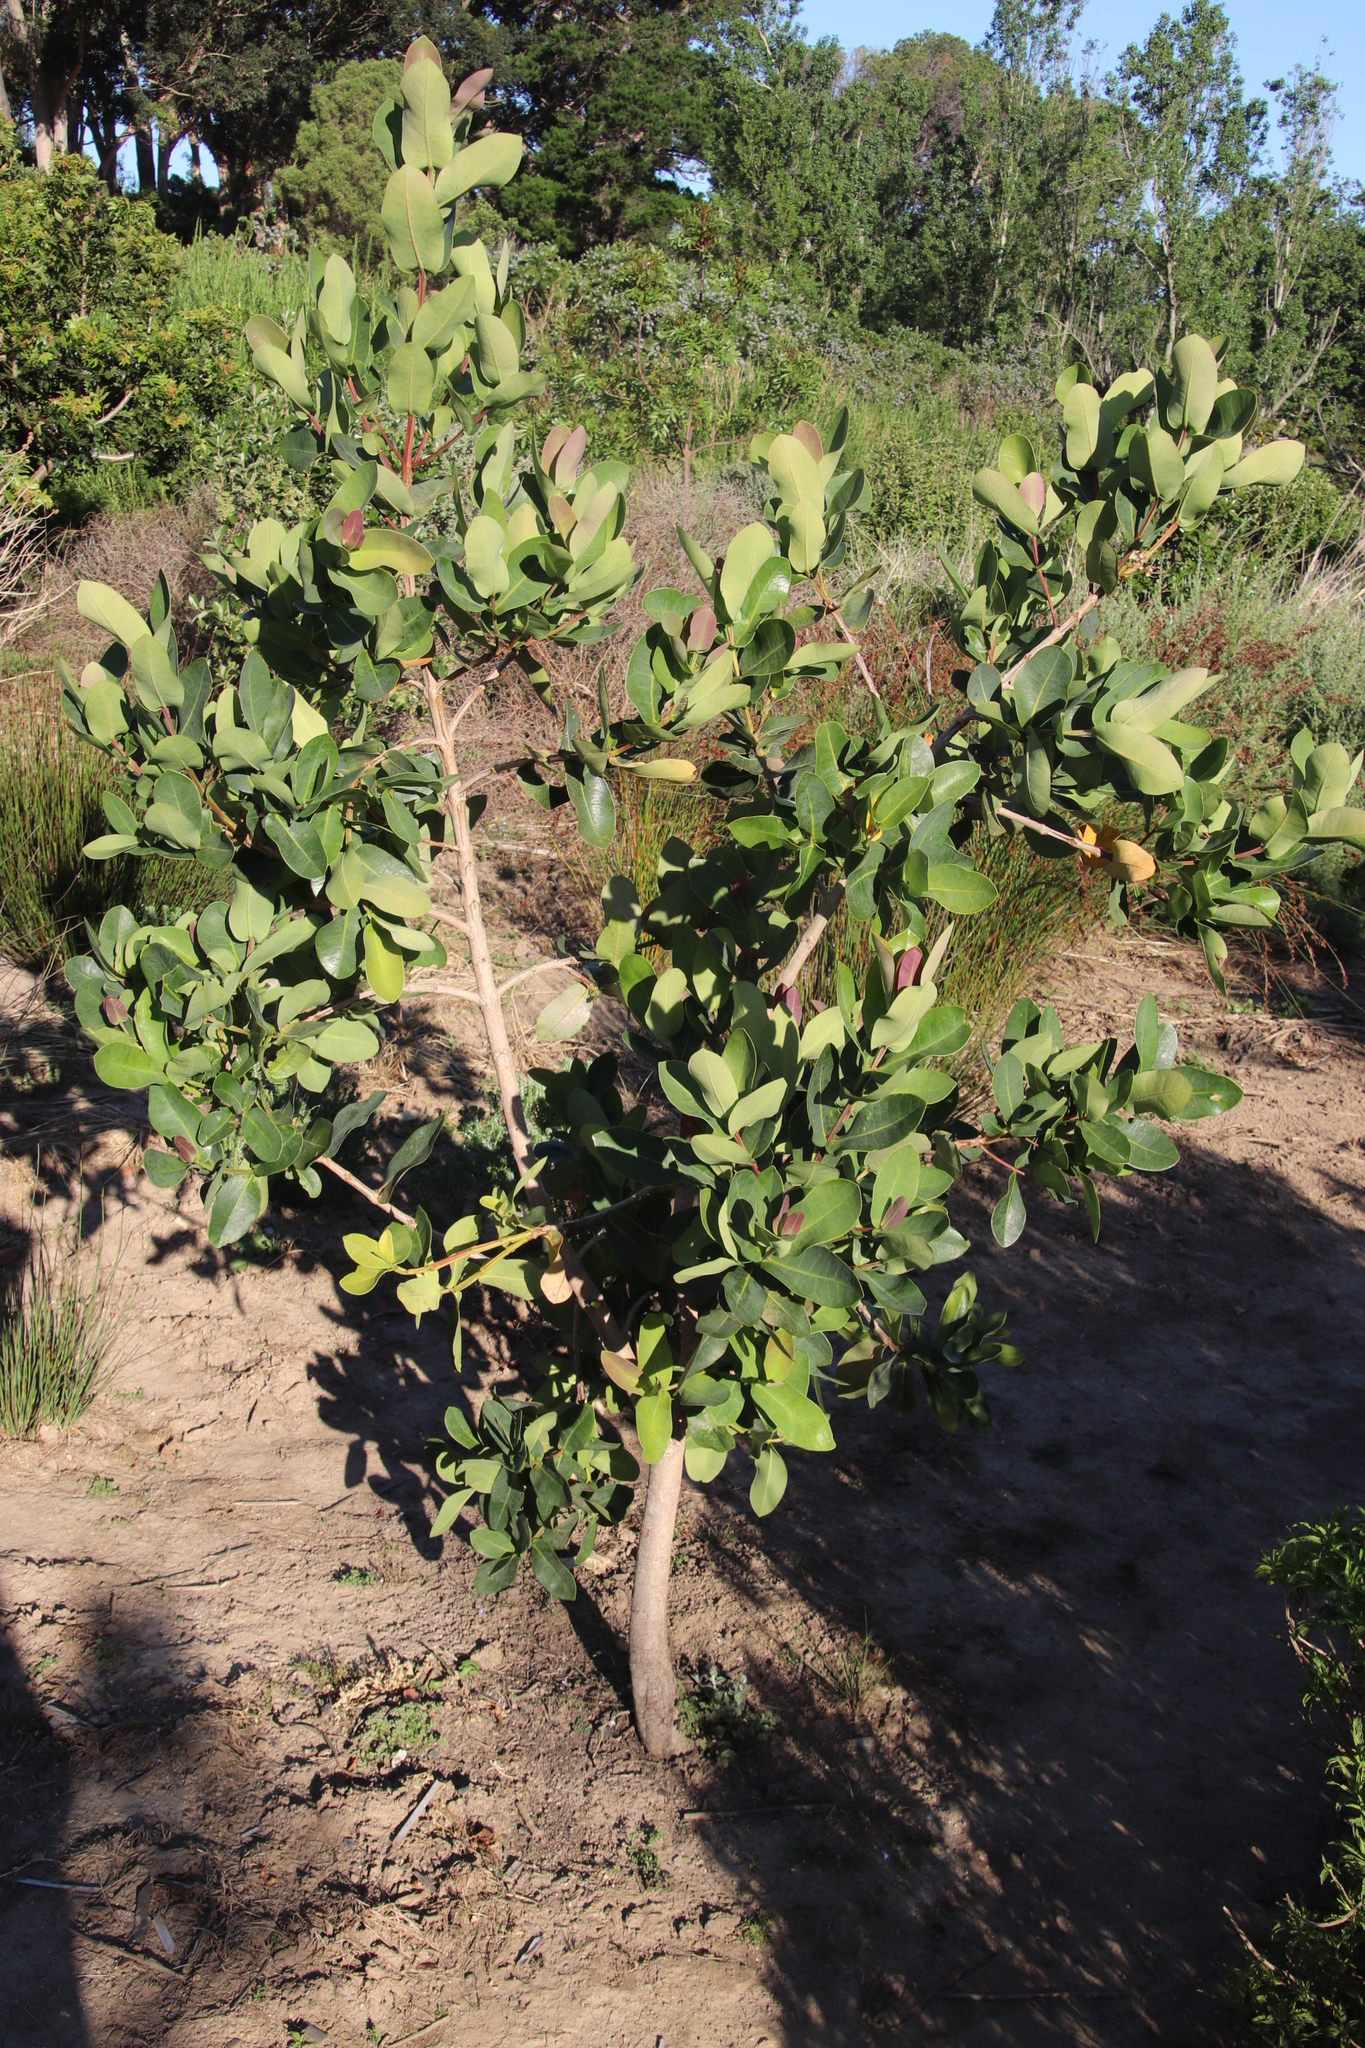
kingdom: Plantae
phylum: Tracheophyta
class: Magnoliopsida
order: Myrtales
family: Myrtaceae
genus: Syzygium
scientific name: Syzygium cordatum
